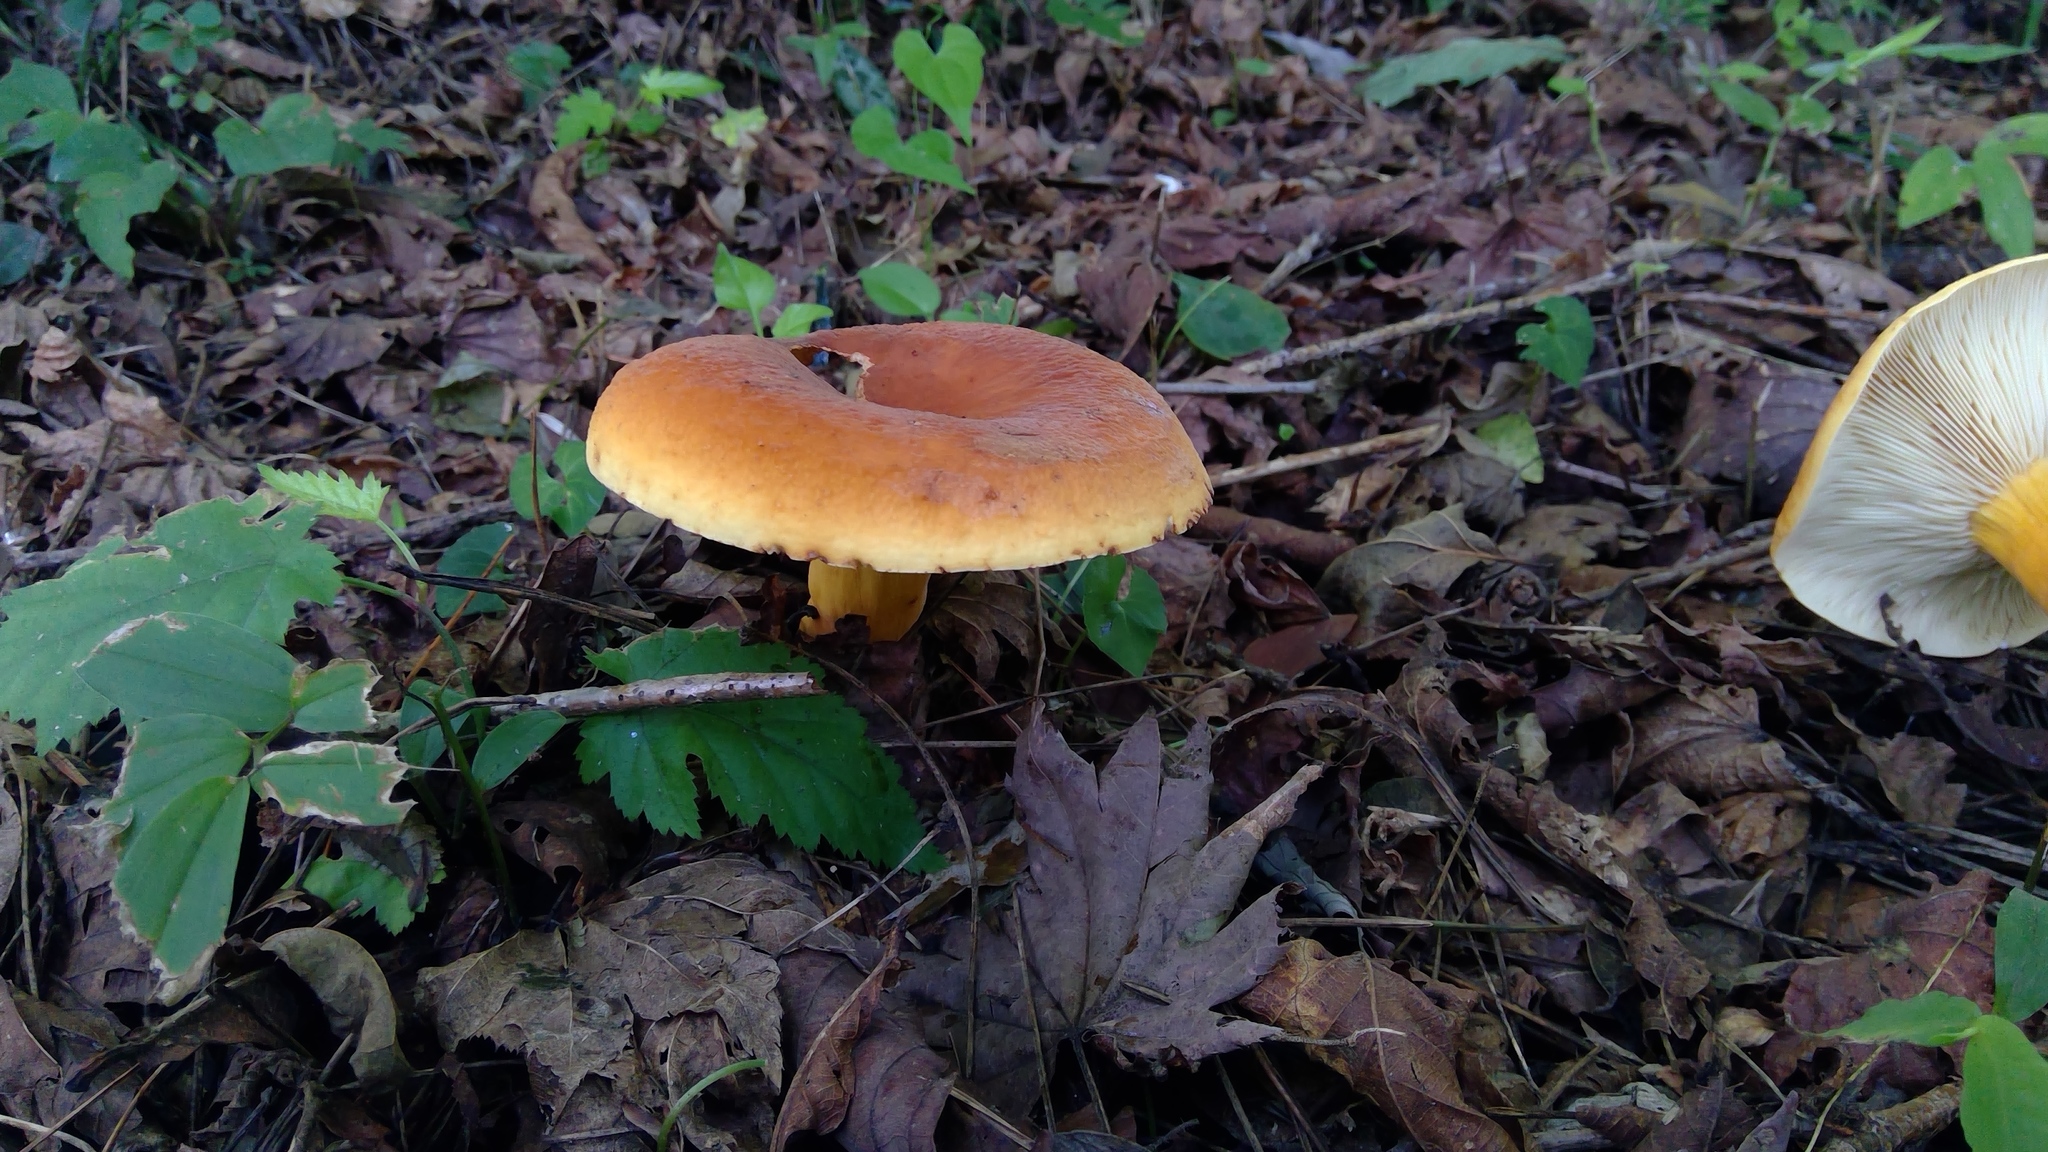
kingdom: Fungi
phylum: Basidiomycota
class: Agaricomycetes
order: Russulales
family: Russulaceae
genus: Lactifluus
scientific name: Lactifluus volemus
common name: Fishy milkcap
